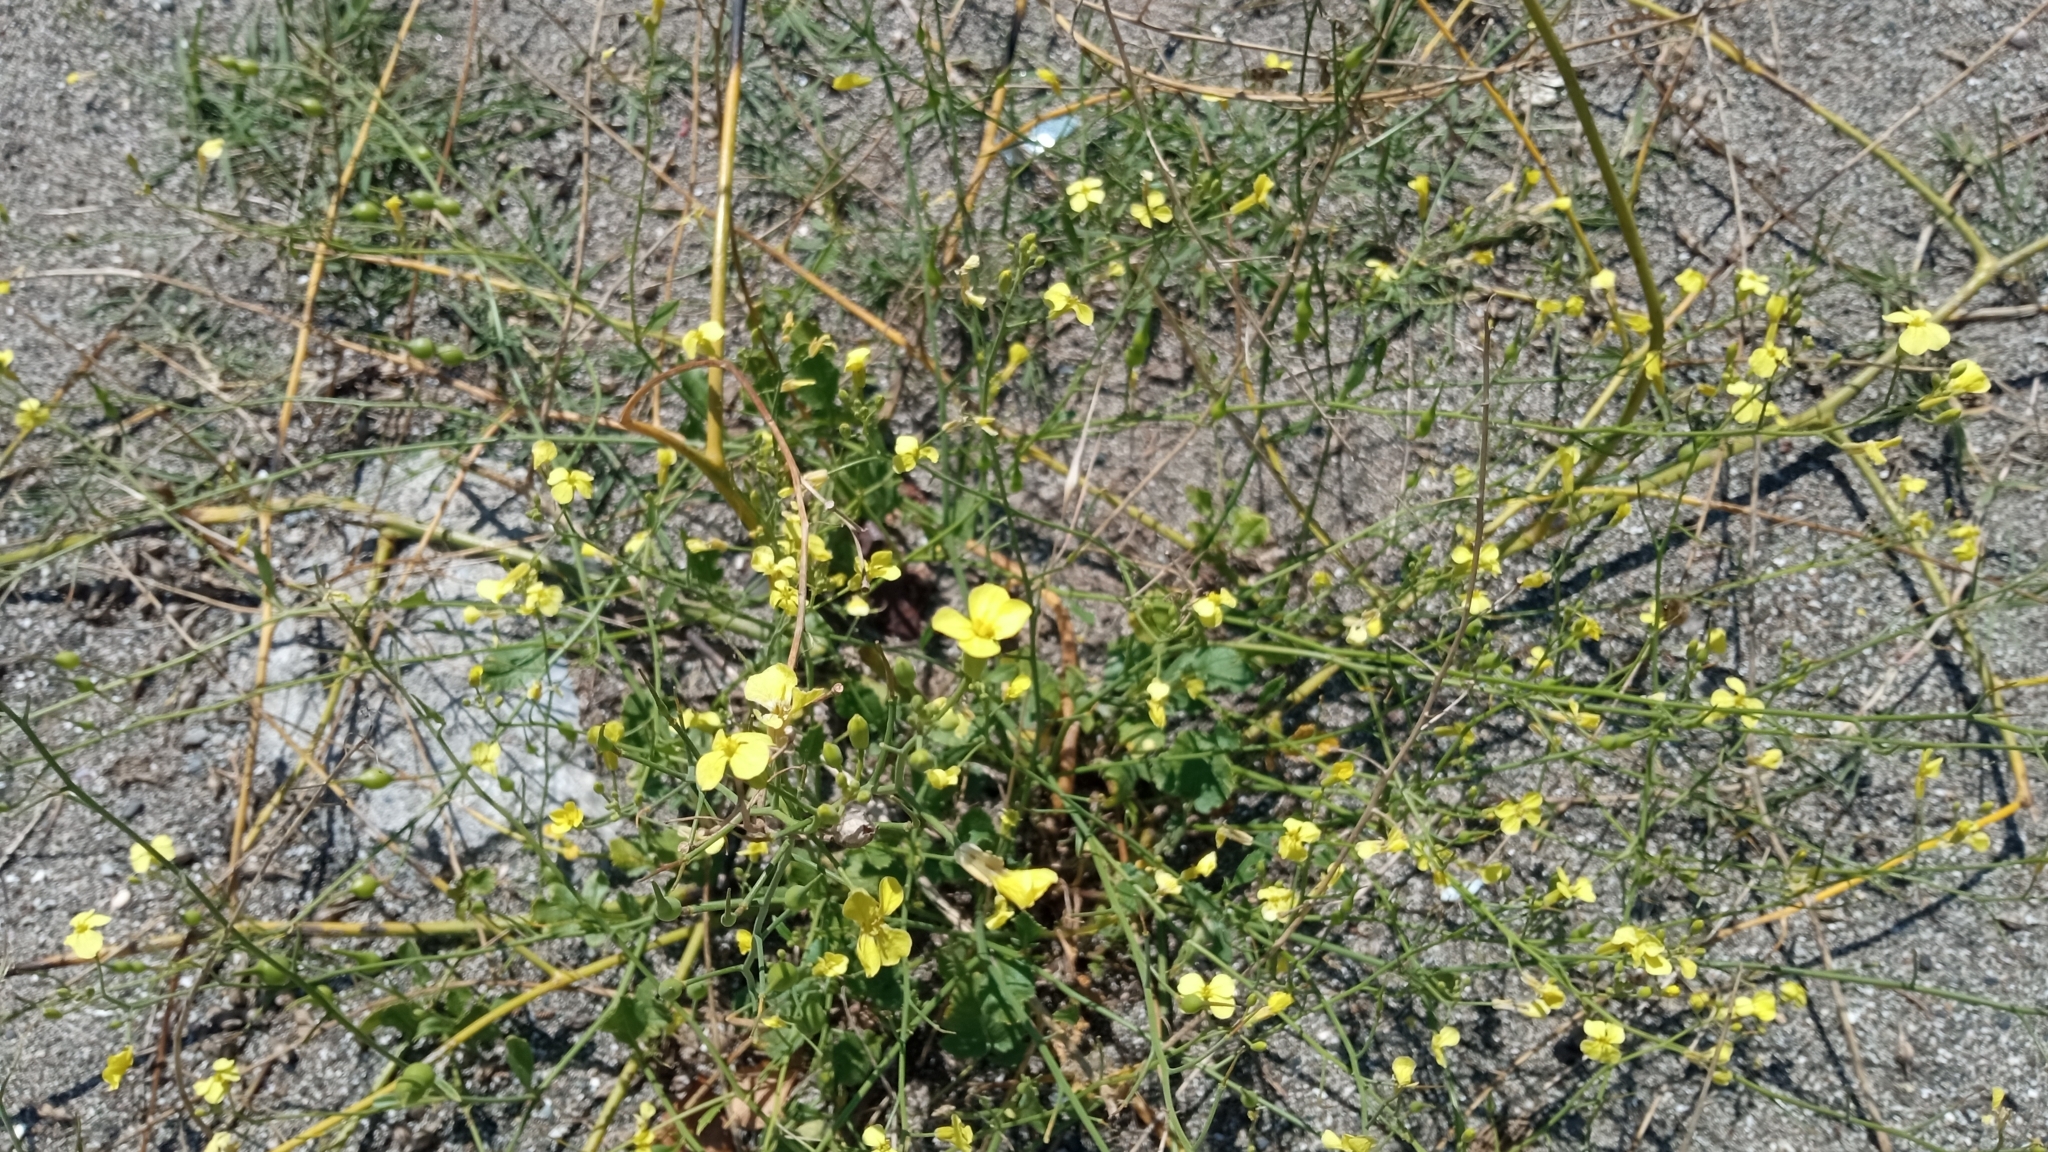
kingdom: Plantae
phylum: Tracheophyta
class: Magnoliopsida
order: Brassicales
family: Brassicaceae
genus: Raphanus
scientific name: Raphanus raphanistrum
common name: Wild radish
